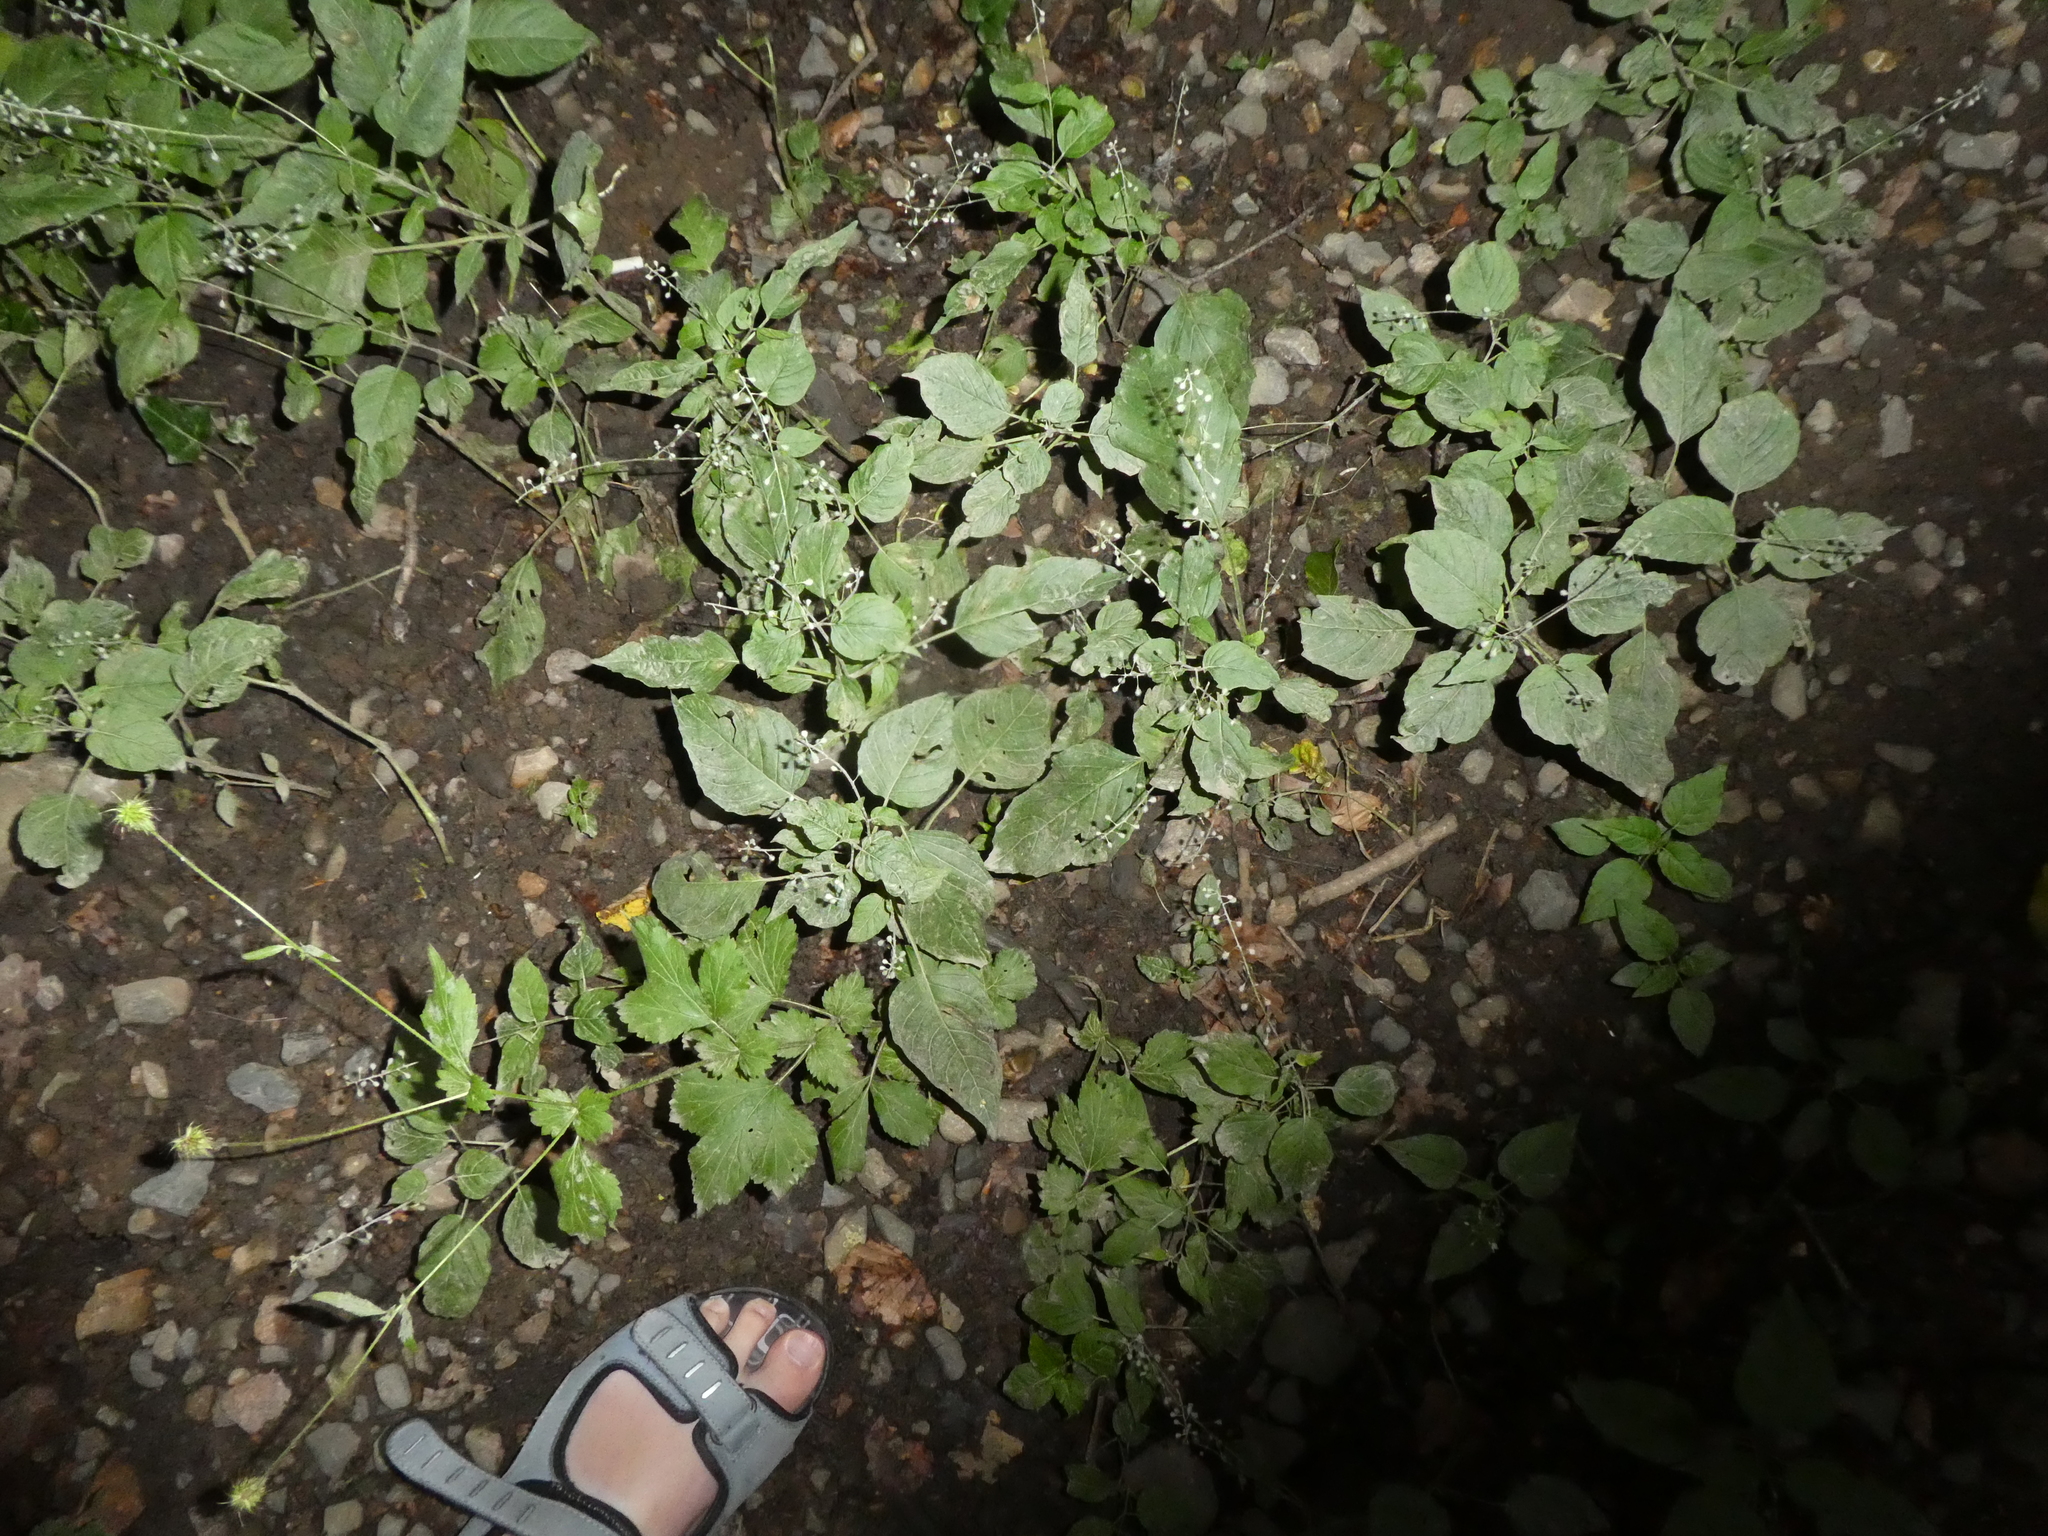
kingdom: Plantae
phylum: Tracheophyta
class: Magnoliopsida
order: Myrtales
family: Onagraceae
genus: Circaea
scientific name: Circaea lutetiana
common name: Enchanter's-nightshade
